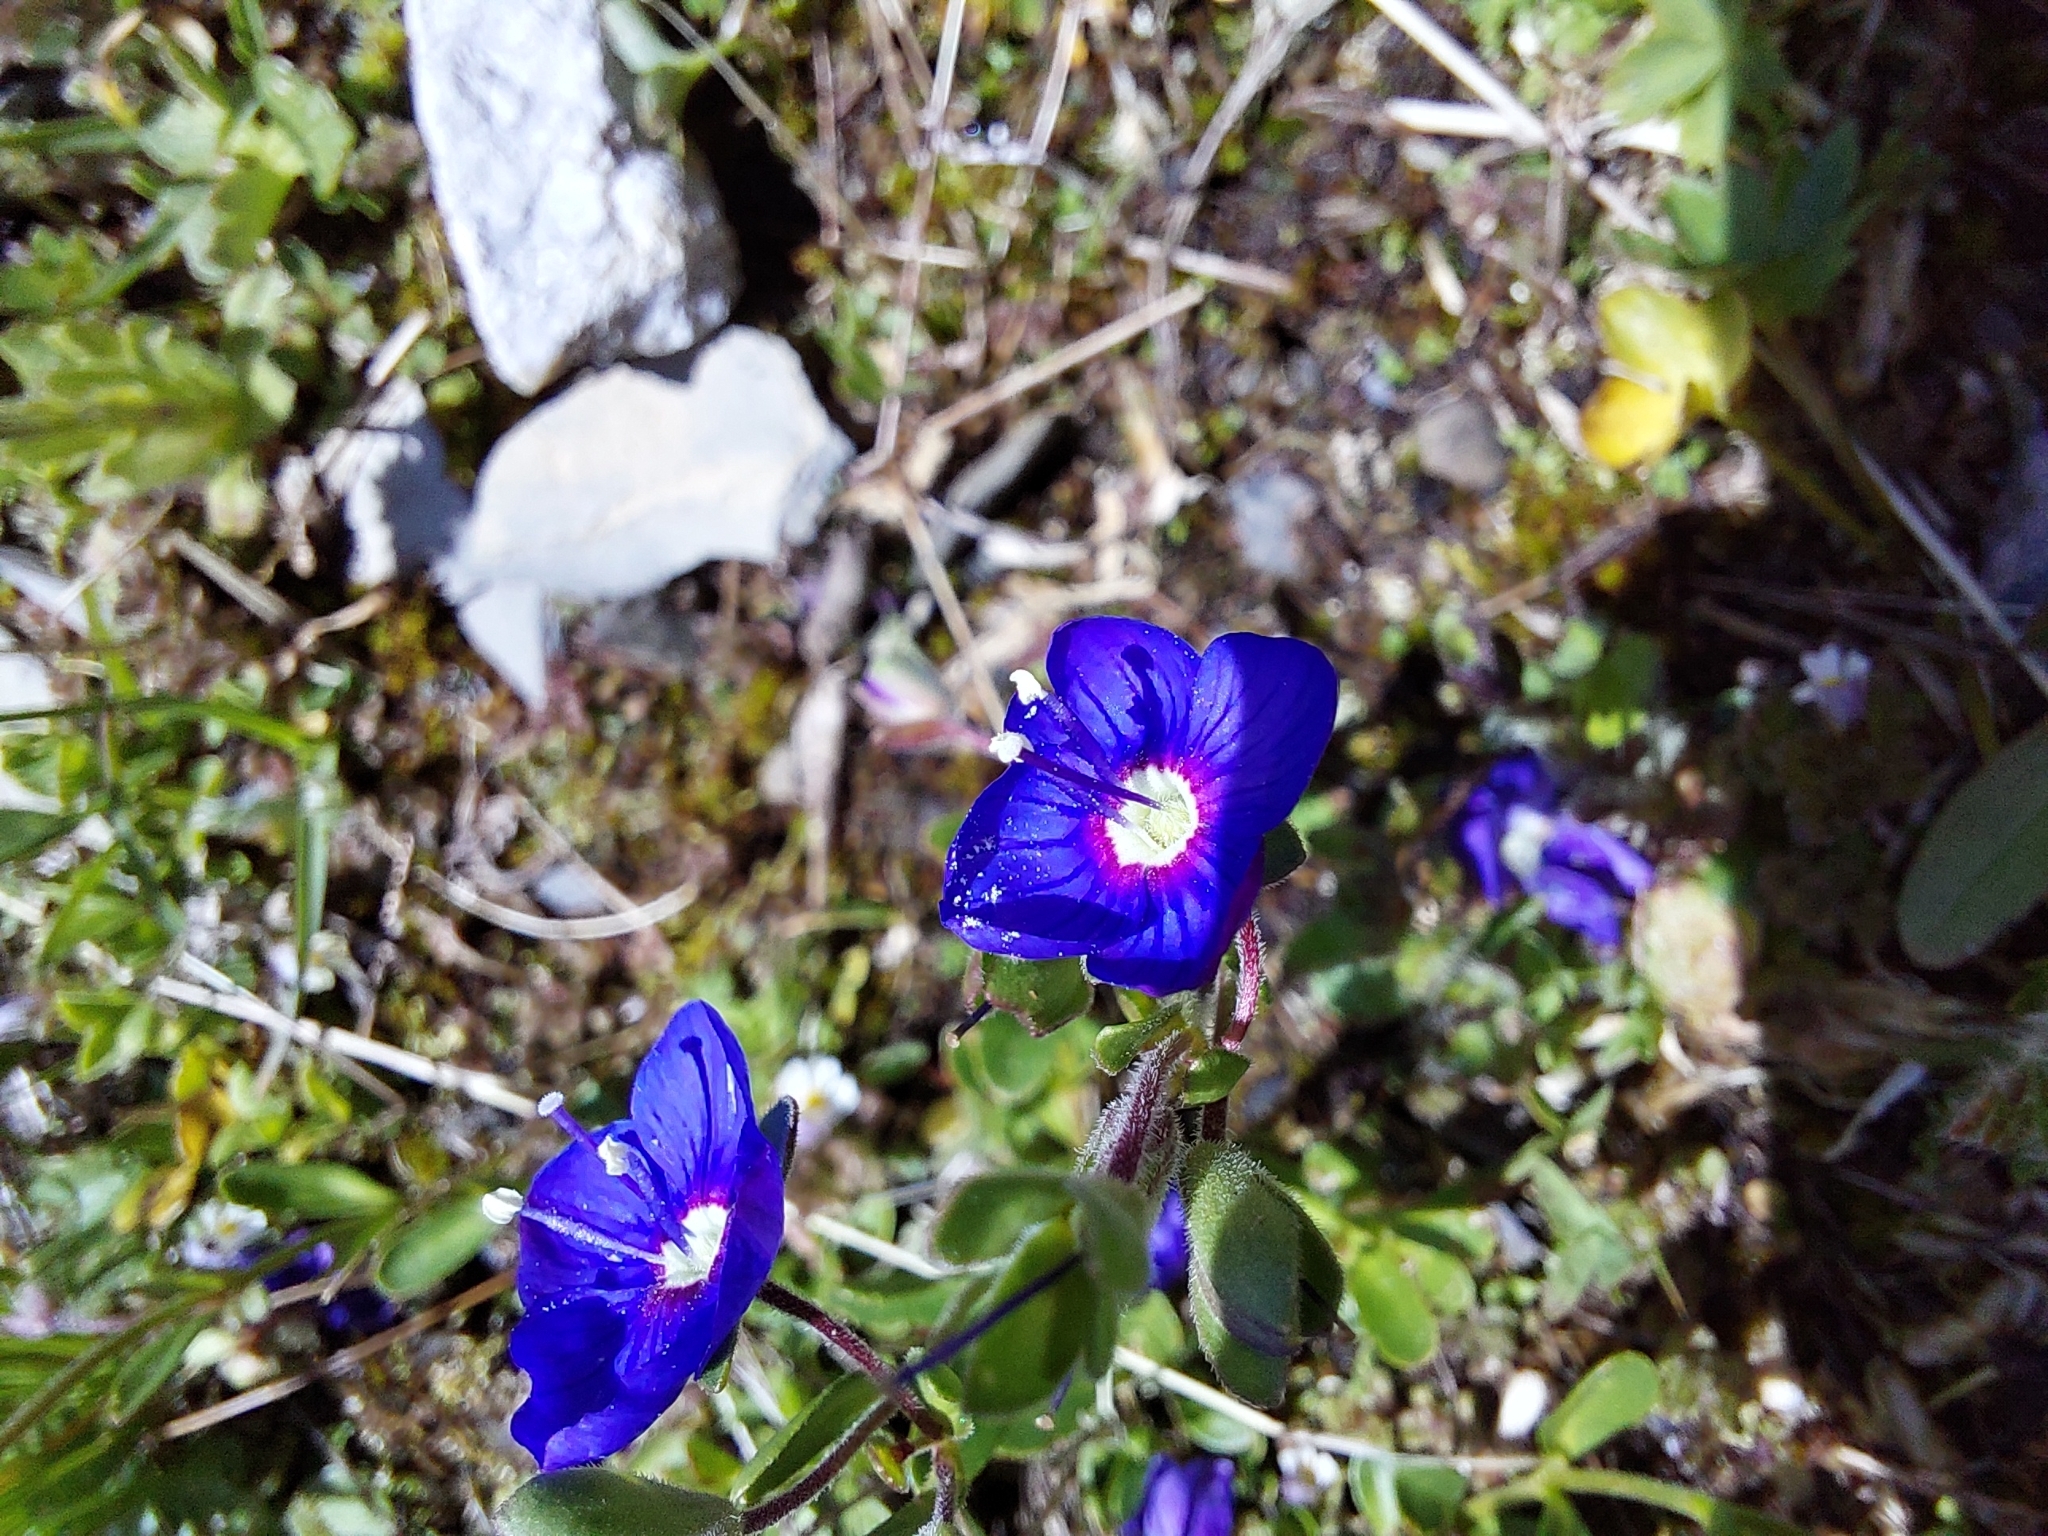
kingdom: Plantae
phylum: Tracheophyta
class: Magnoliopsida
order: Lamiales
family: Plantaginaceae
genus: Veronica
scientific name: Veronica fruticans
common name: Rock speedwell
